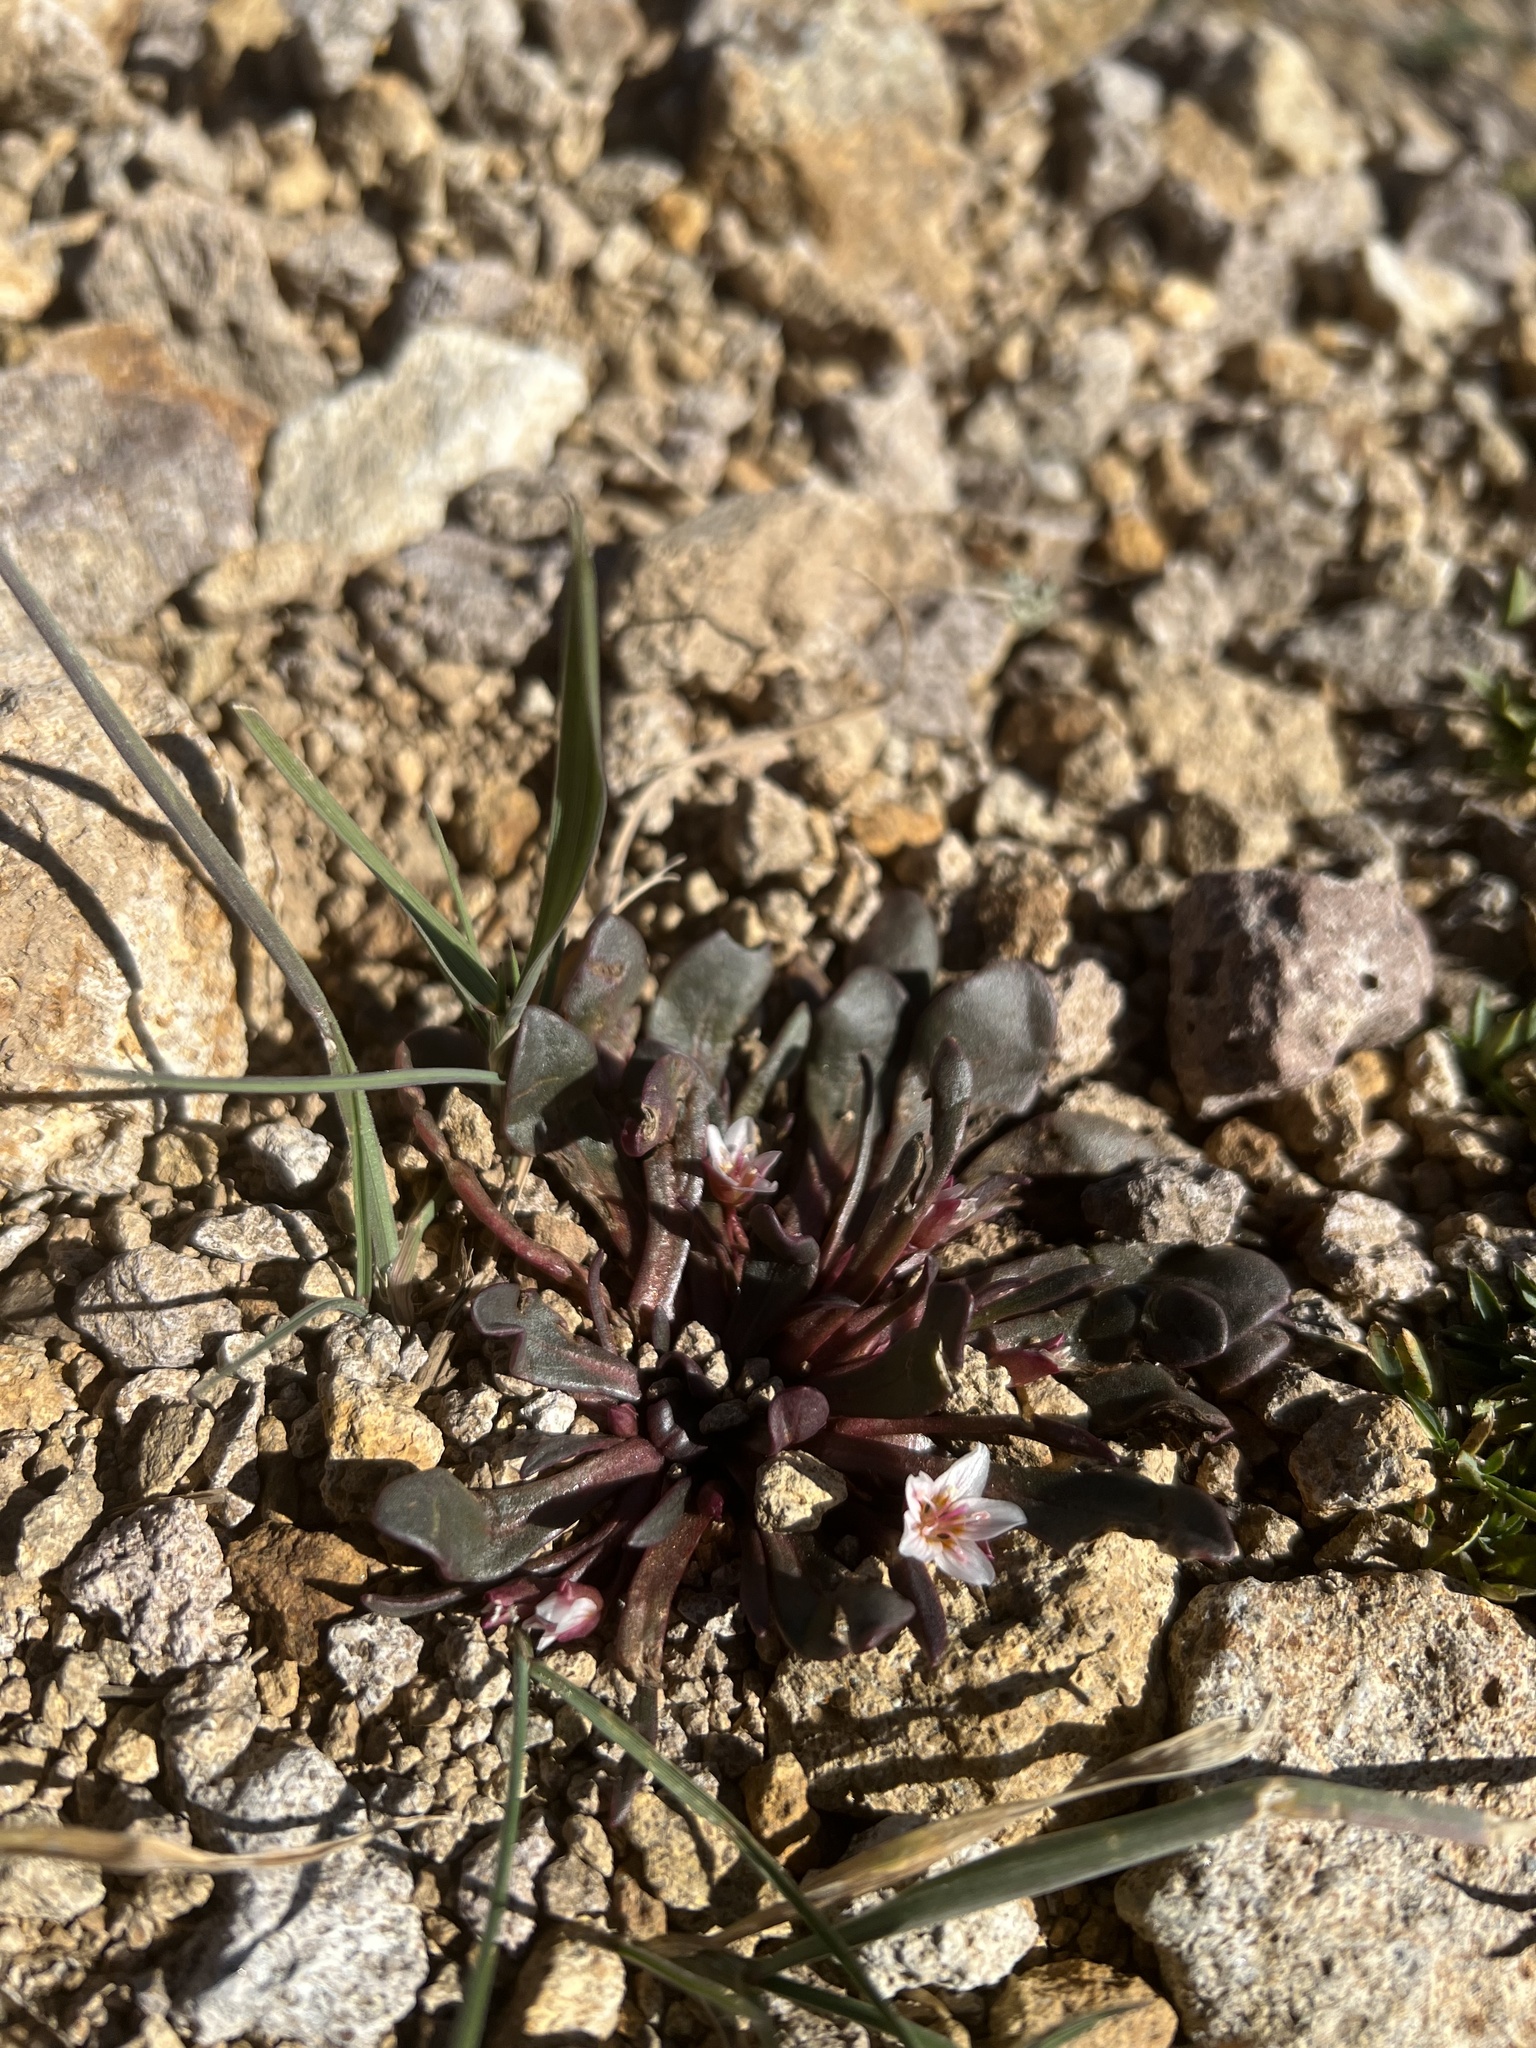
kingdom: Plantae
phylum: Tracheophyta
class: Magnoliopsida
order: Caryophyllales
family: Montiaceae
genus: Claytonia
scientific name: Claytonia megarhiza
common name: Alpine spring beauty
